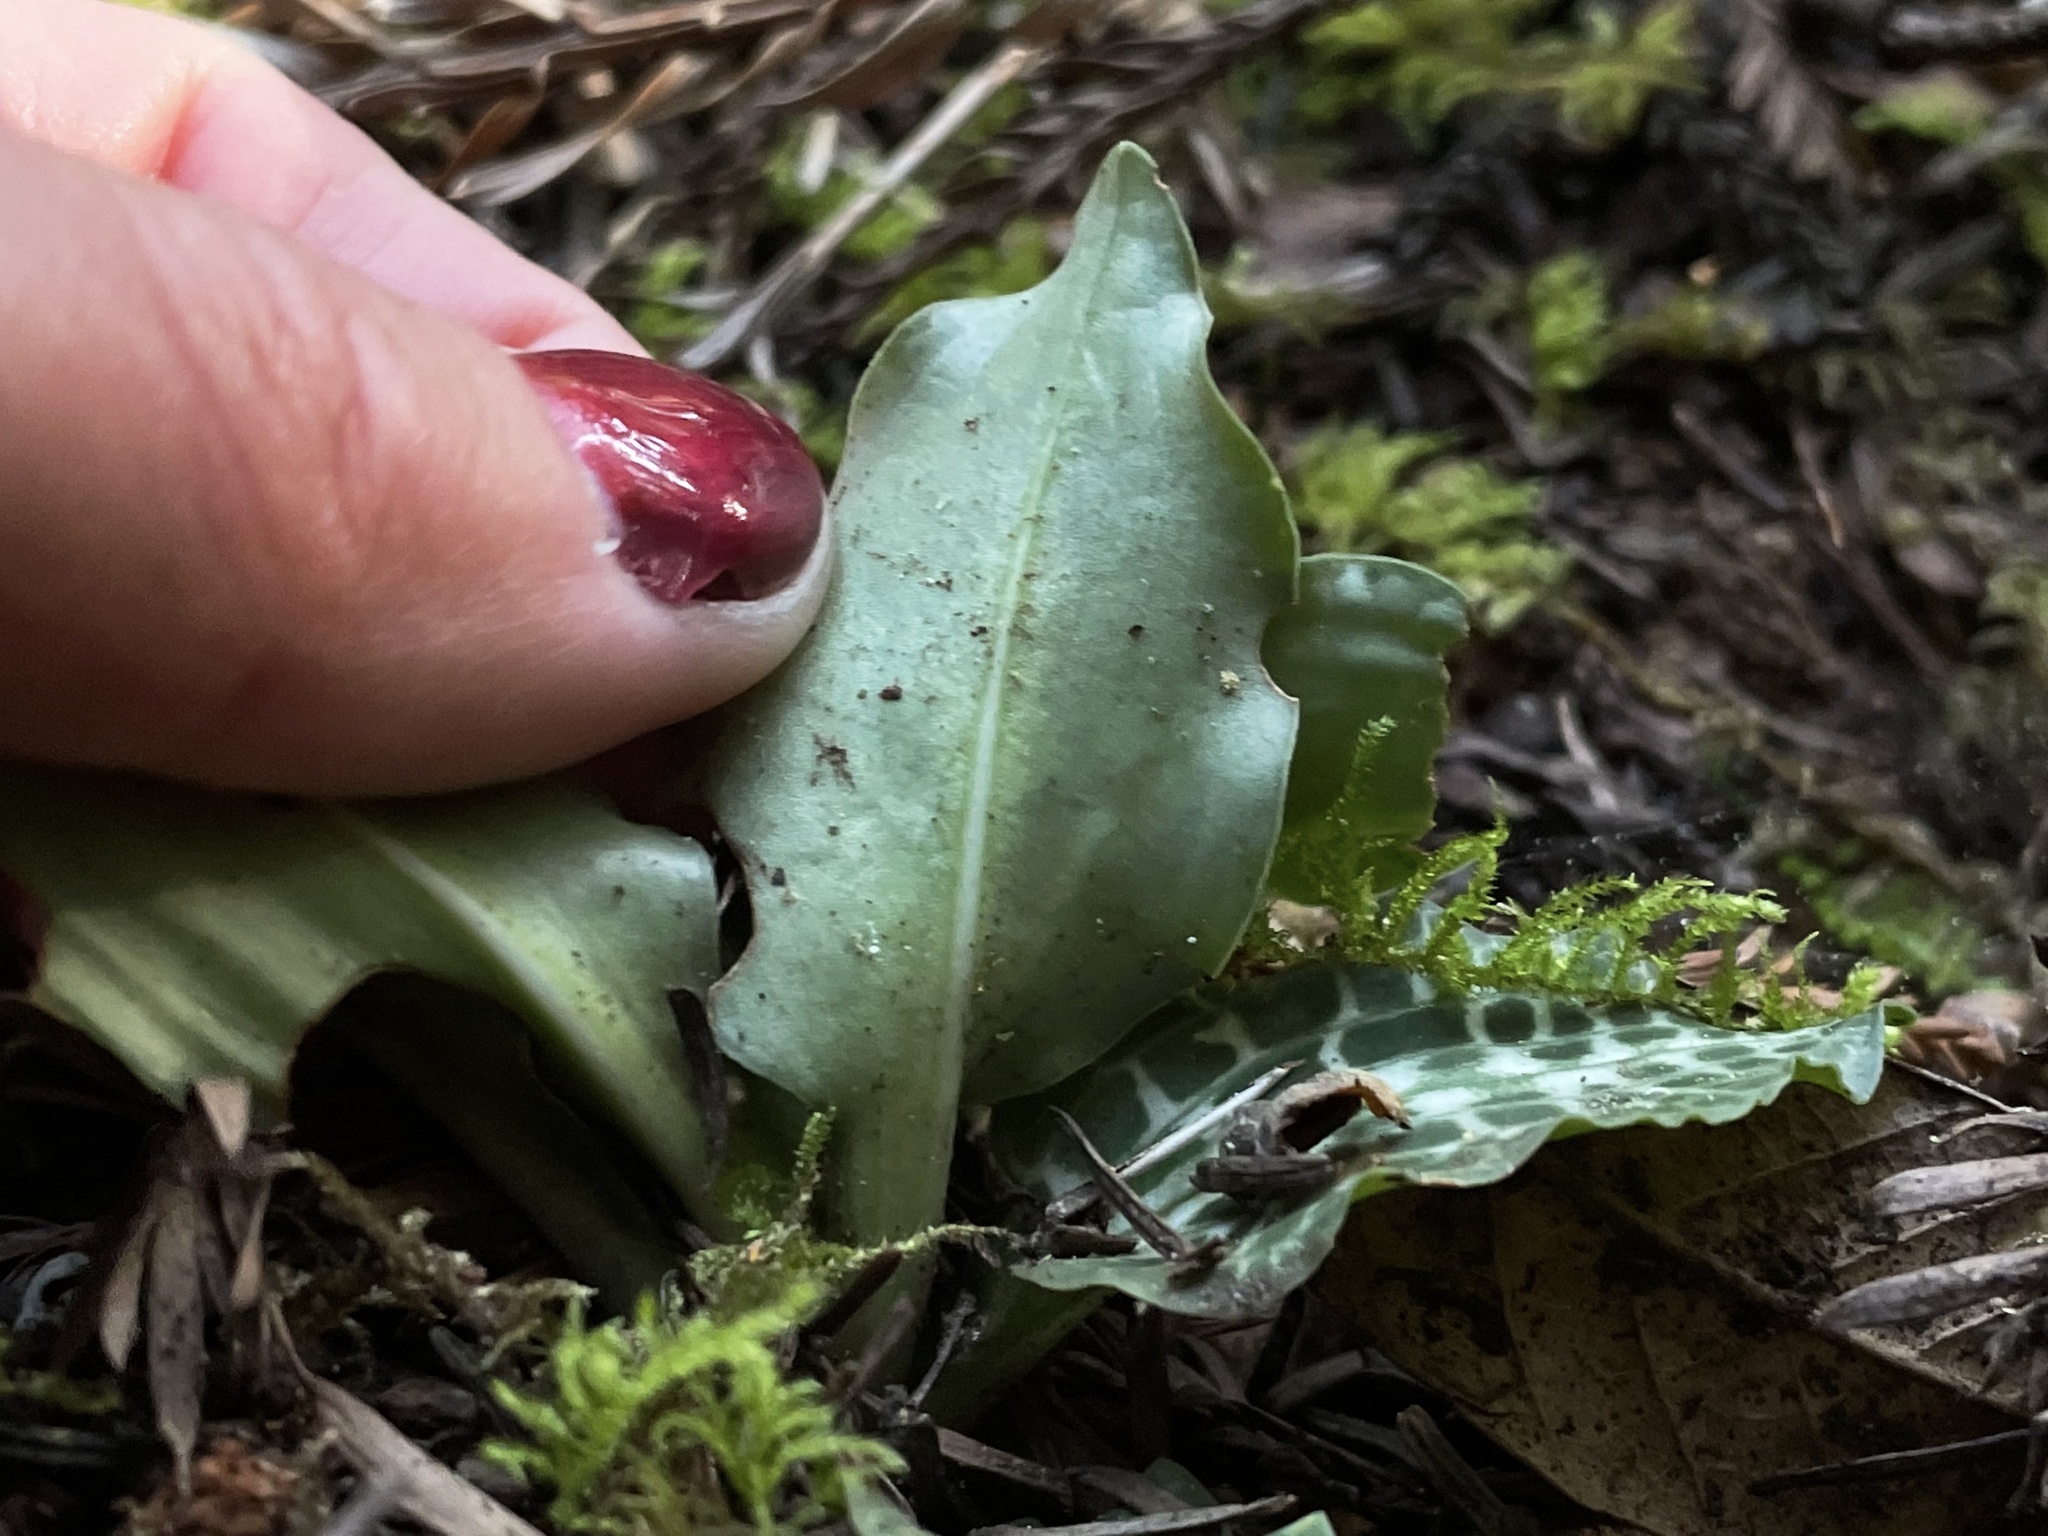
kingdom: Plantae
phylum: Tracheophyta
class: Liliopsida
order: Asparagales
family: Orchidaceae
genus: Goodyera
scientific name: Goodyera oblongifolia
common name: Giant rattlesnake-plantain
